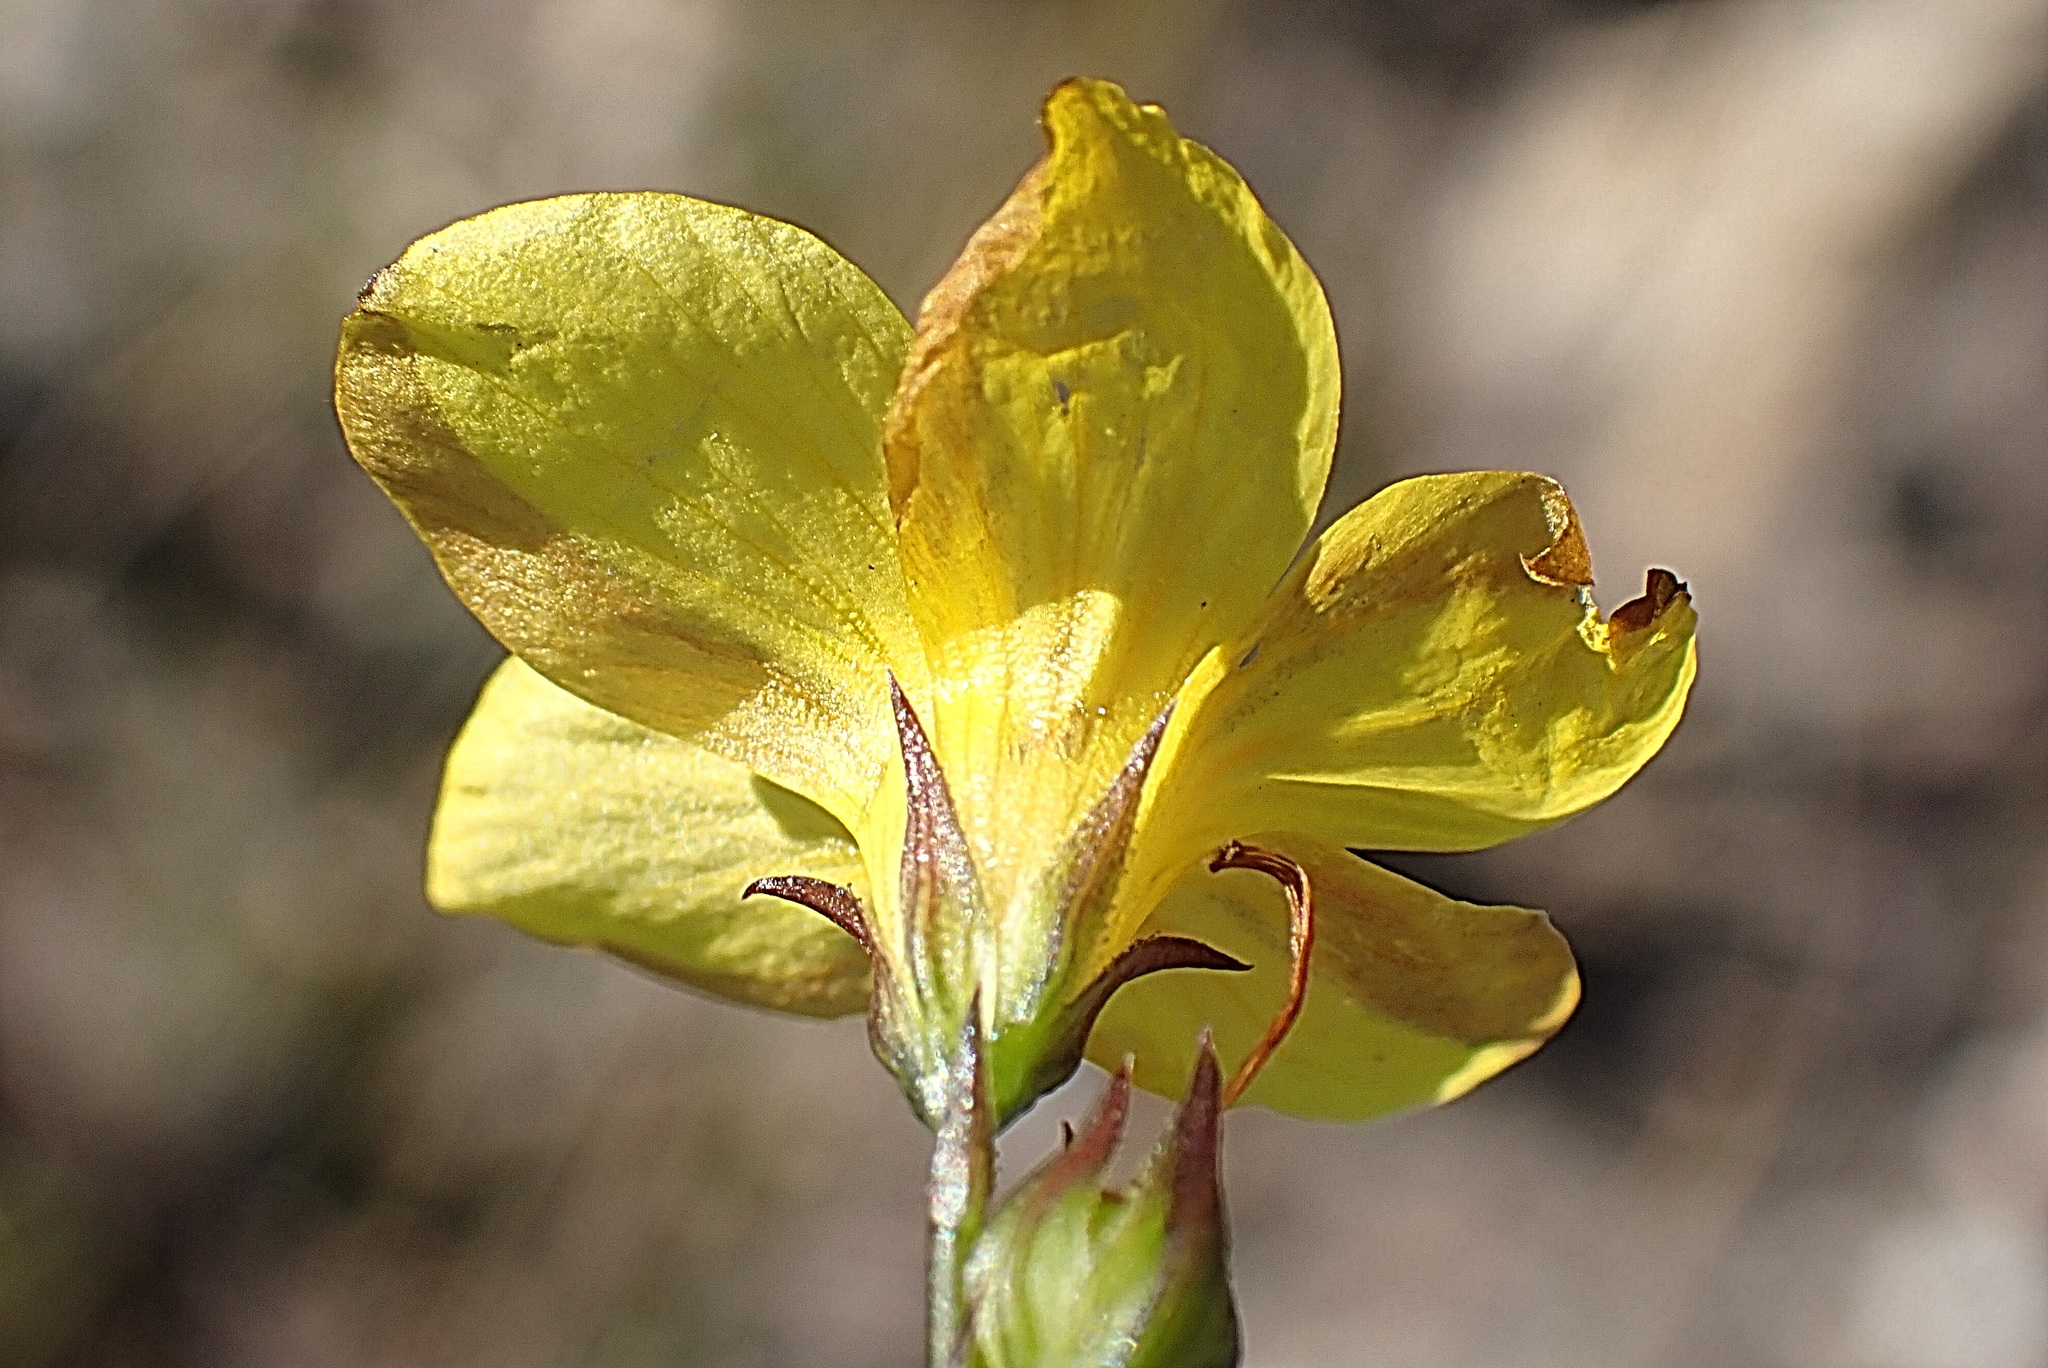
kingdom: Plantae
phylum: Tracheophyta
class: Magnoliopsida
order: Malpighiales
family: Linaceae
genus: Linum
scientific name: Linum africanum
